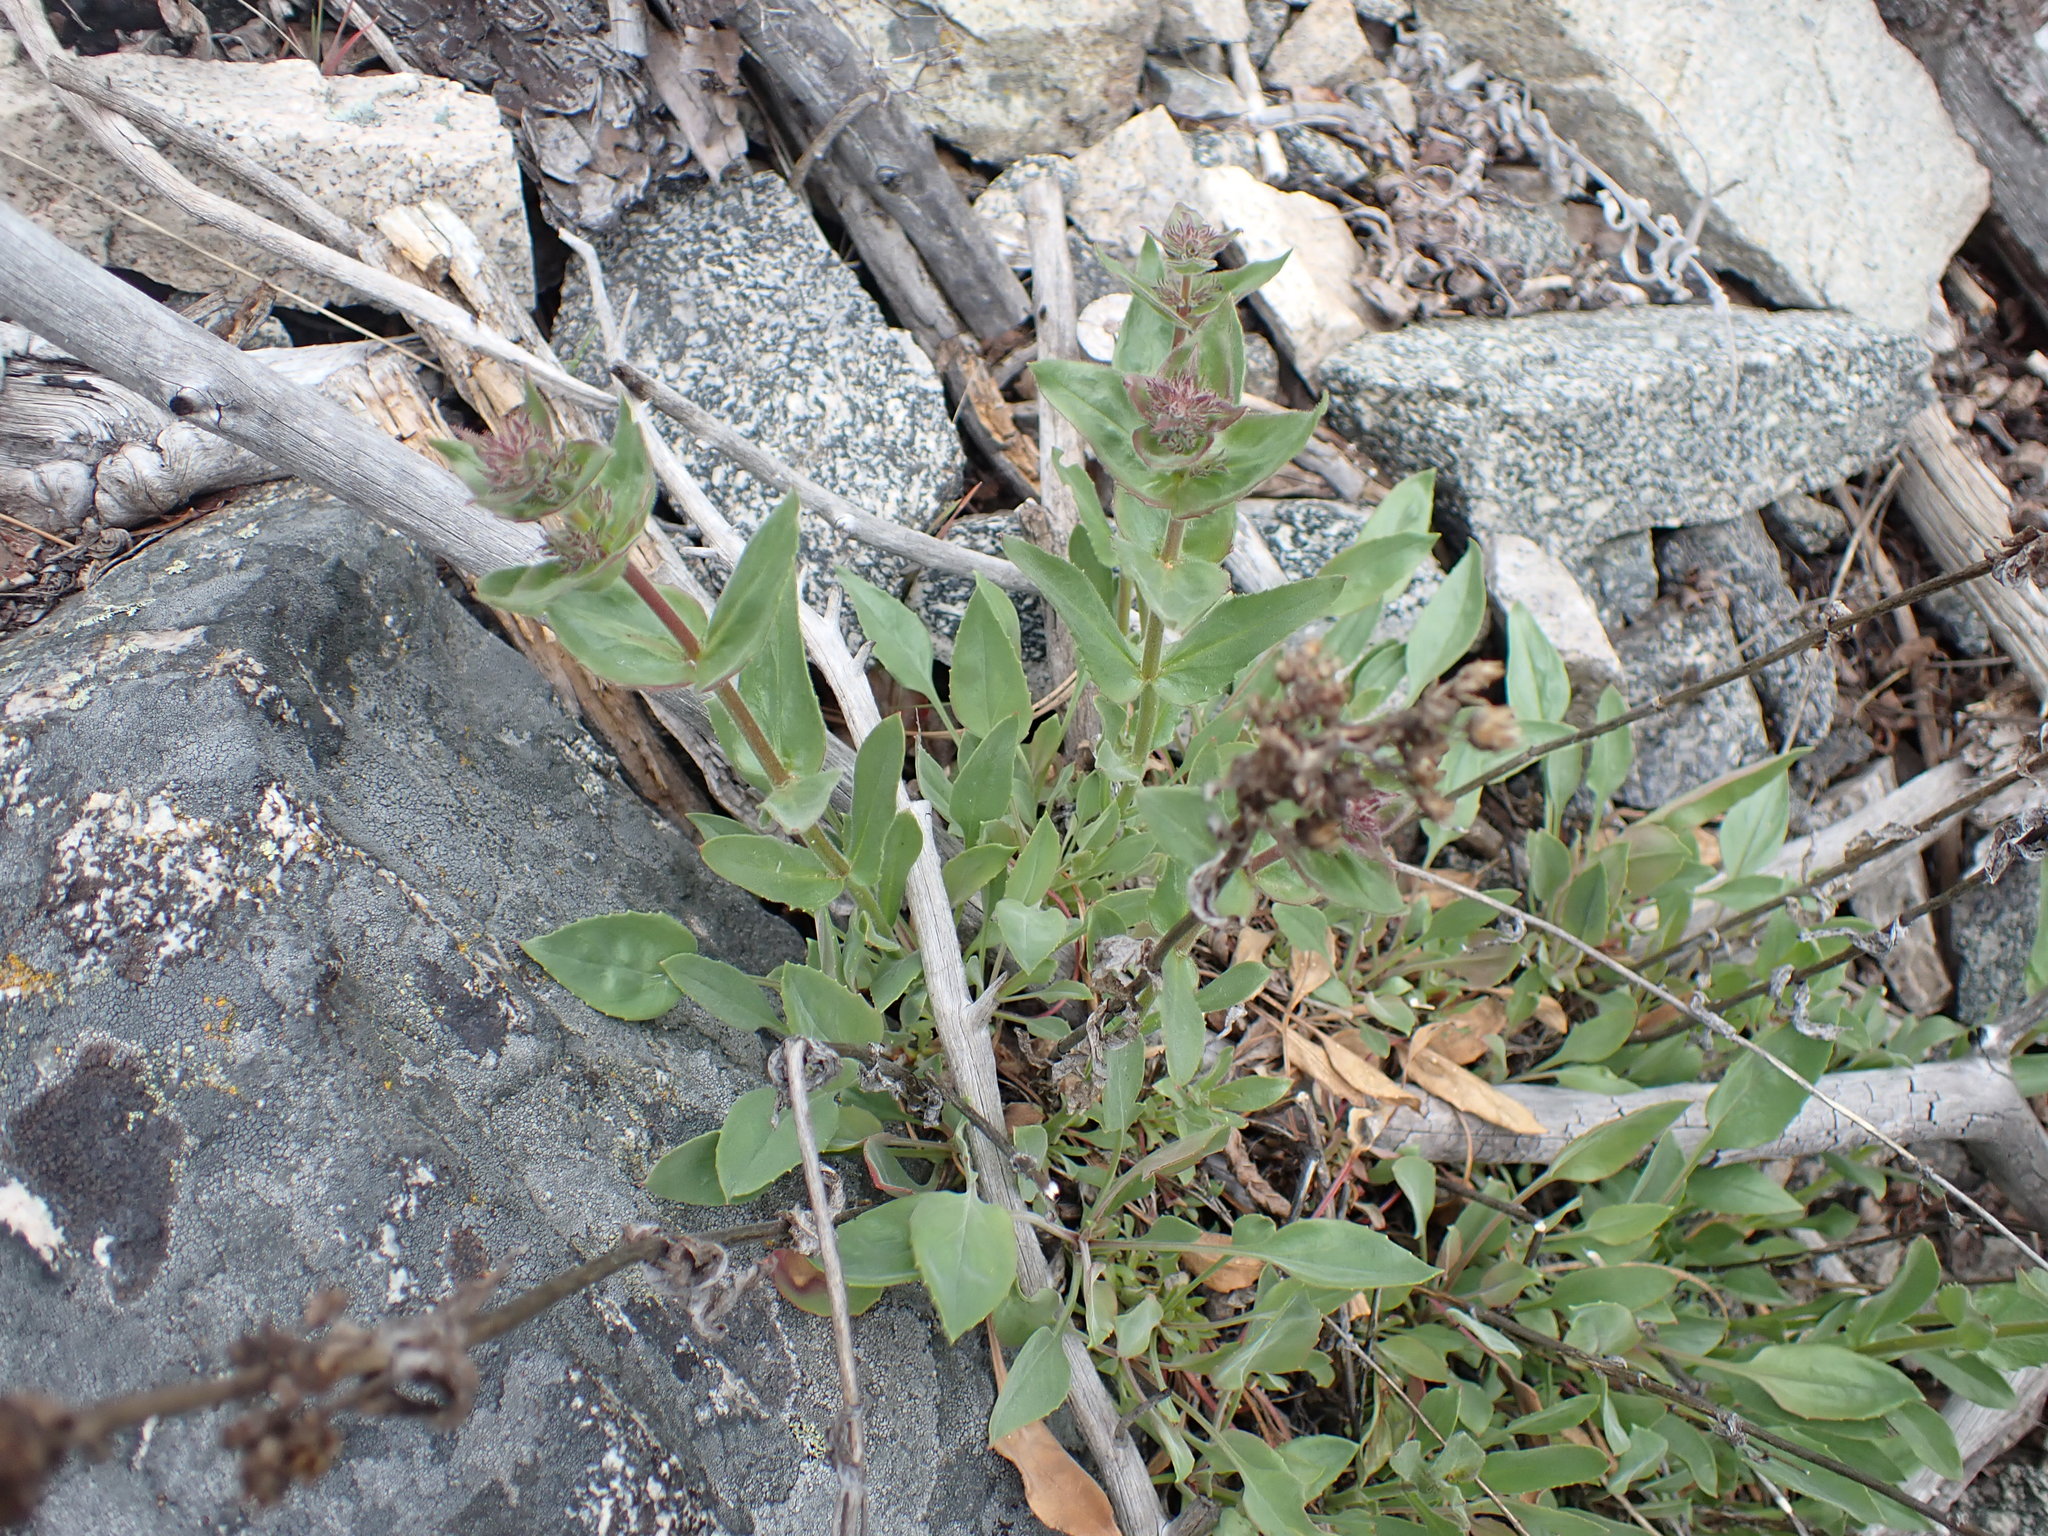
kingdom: Plantae
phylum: Tracheophyta
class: Magnoliopsida
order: Lamiales
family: Plantaginaceae
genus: Penstemon
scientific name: Penstemon pruinosus
